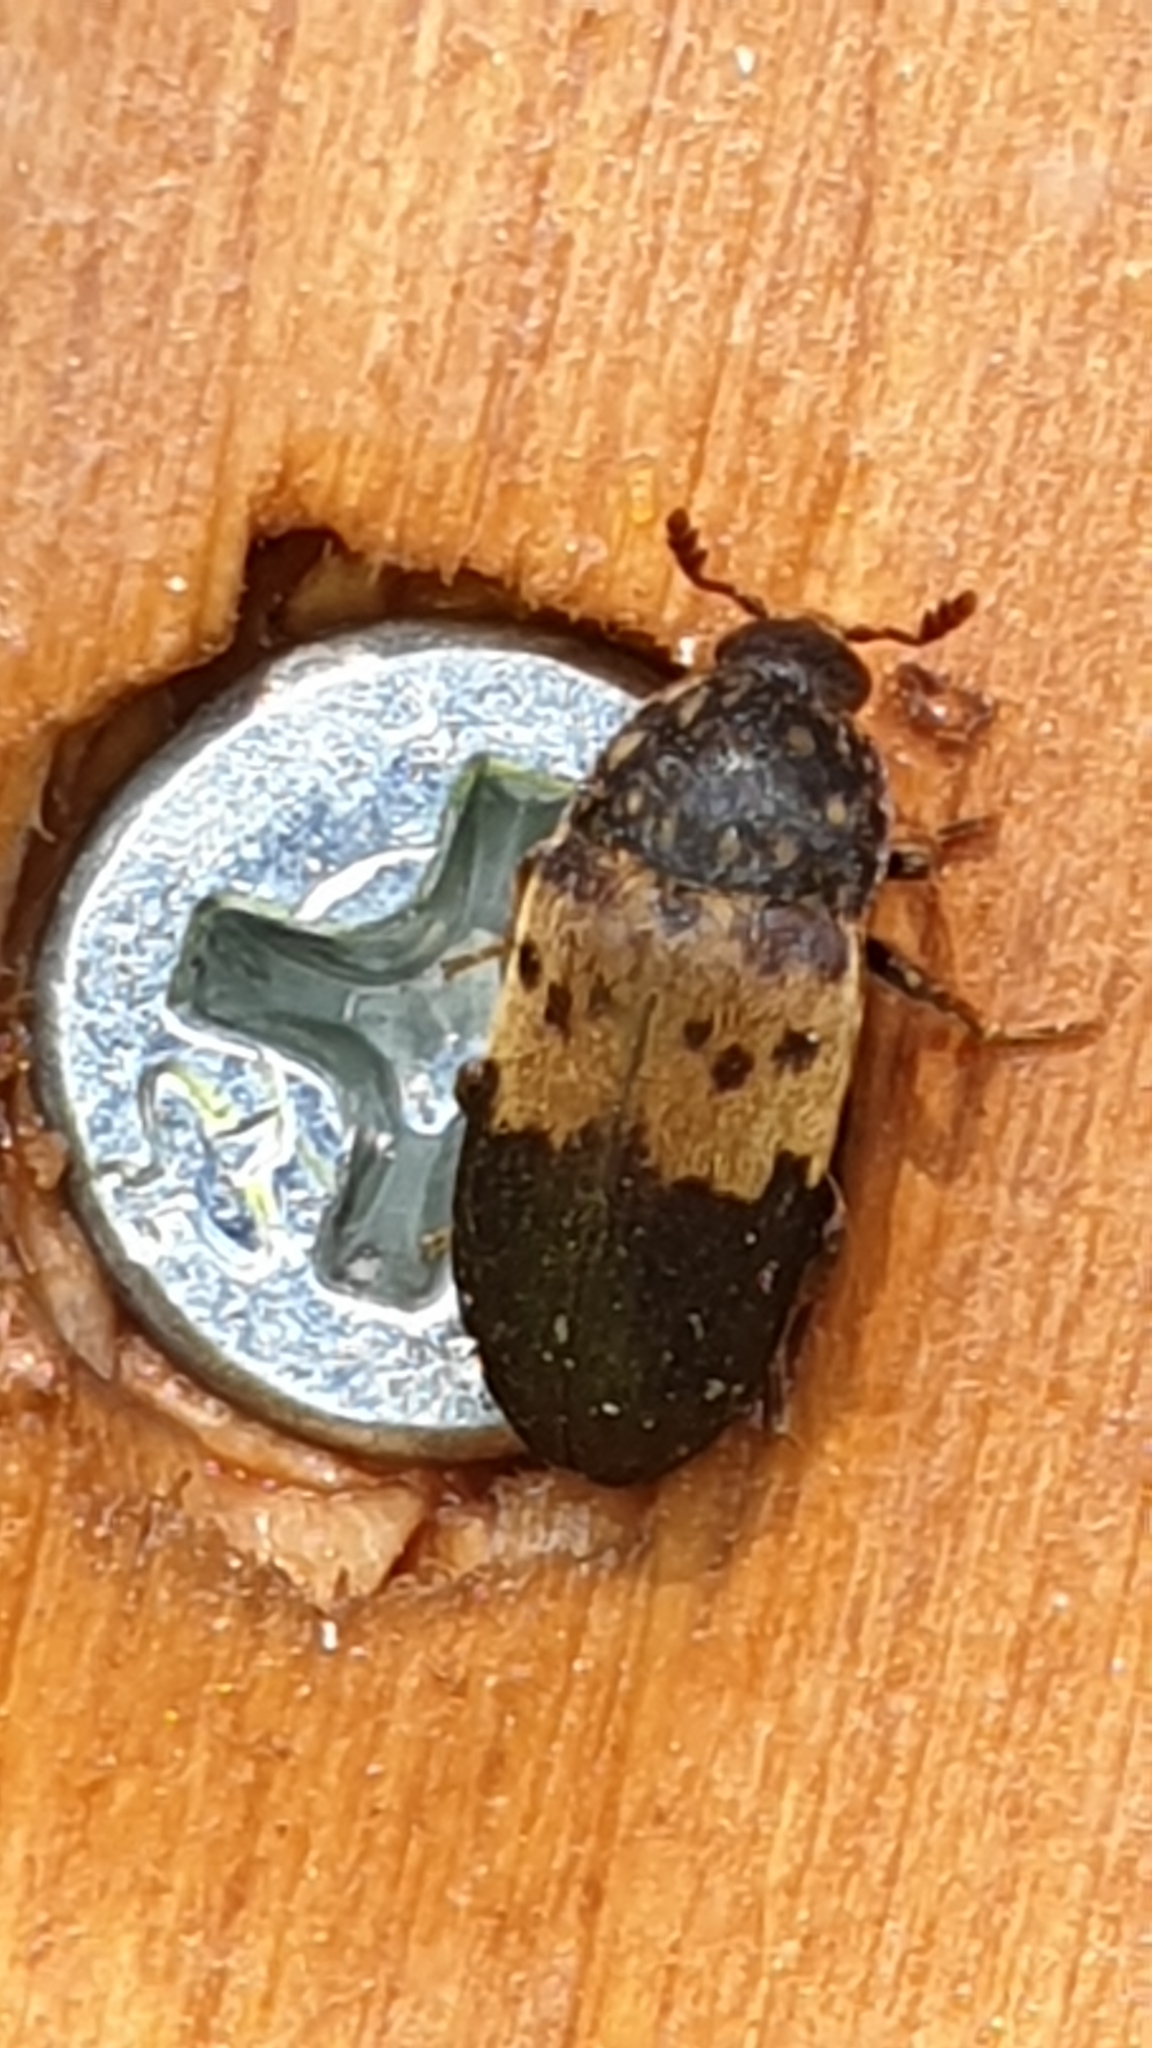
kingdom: Animalia
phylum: Arthropoda
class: Insecta
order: Coleoptera
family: Dermestidae
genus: Dermestes
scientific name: Dermestes lardarius
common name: Larder beetle
